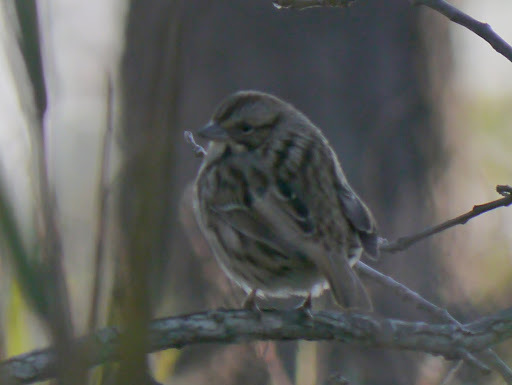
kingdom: Animalia
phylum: Chordata
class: Aves
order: Passeriformes
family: Passerellidae
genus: Melospiza
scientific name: Melospiza melodia
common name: Song sparrow
